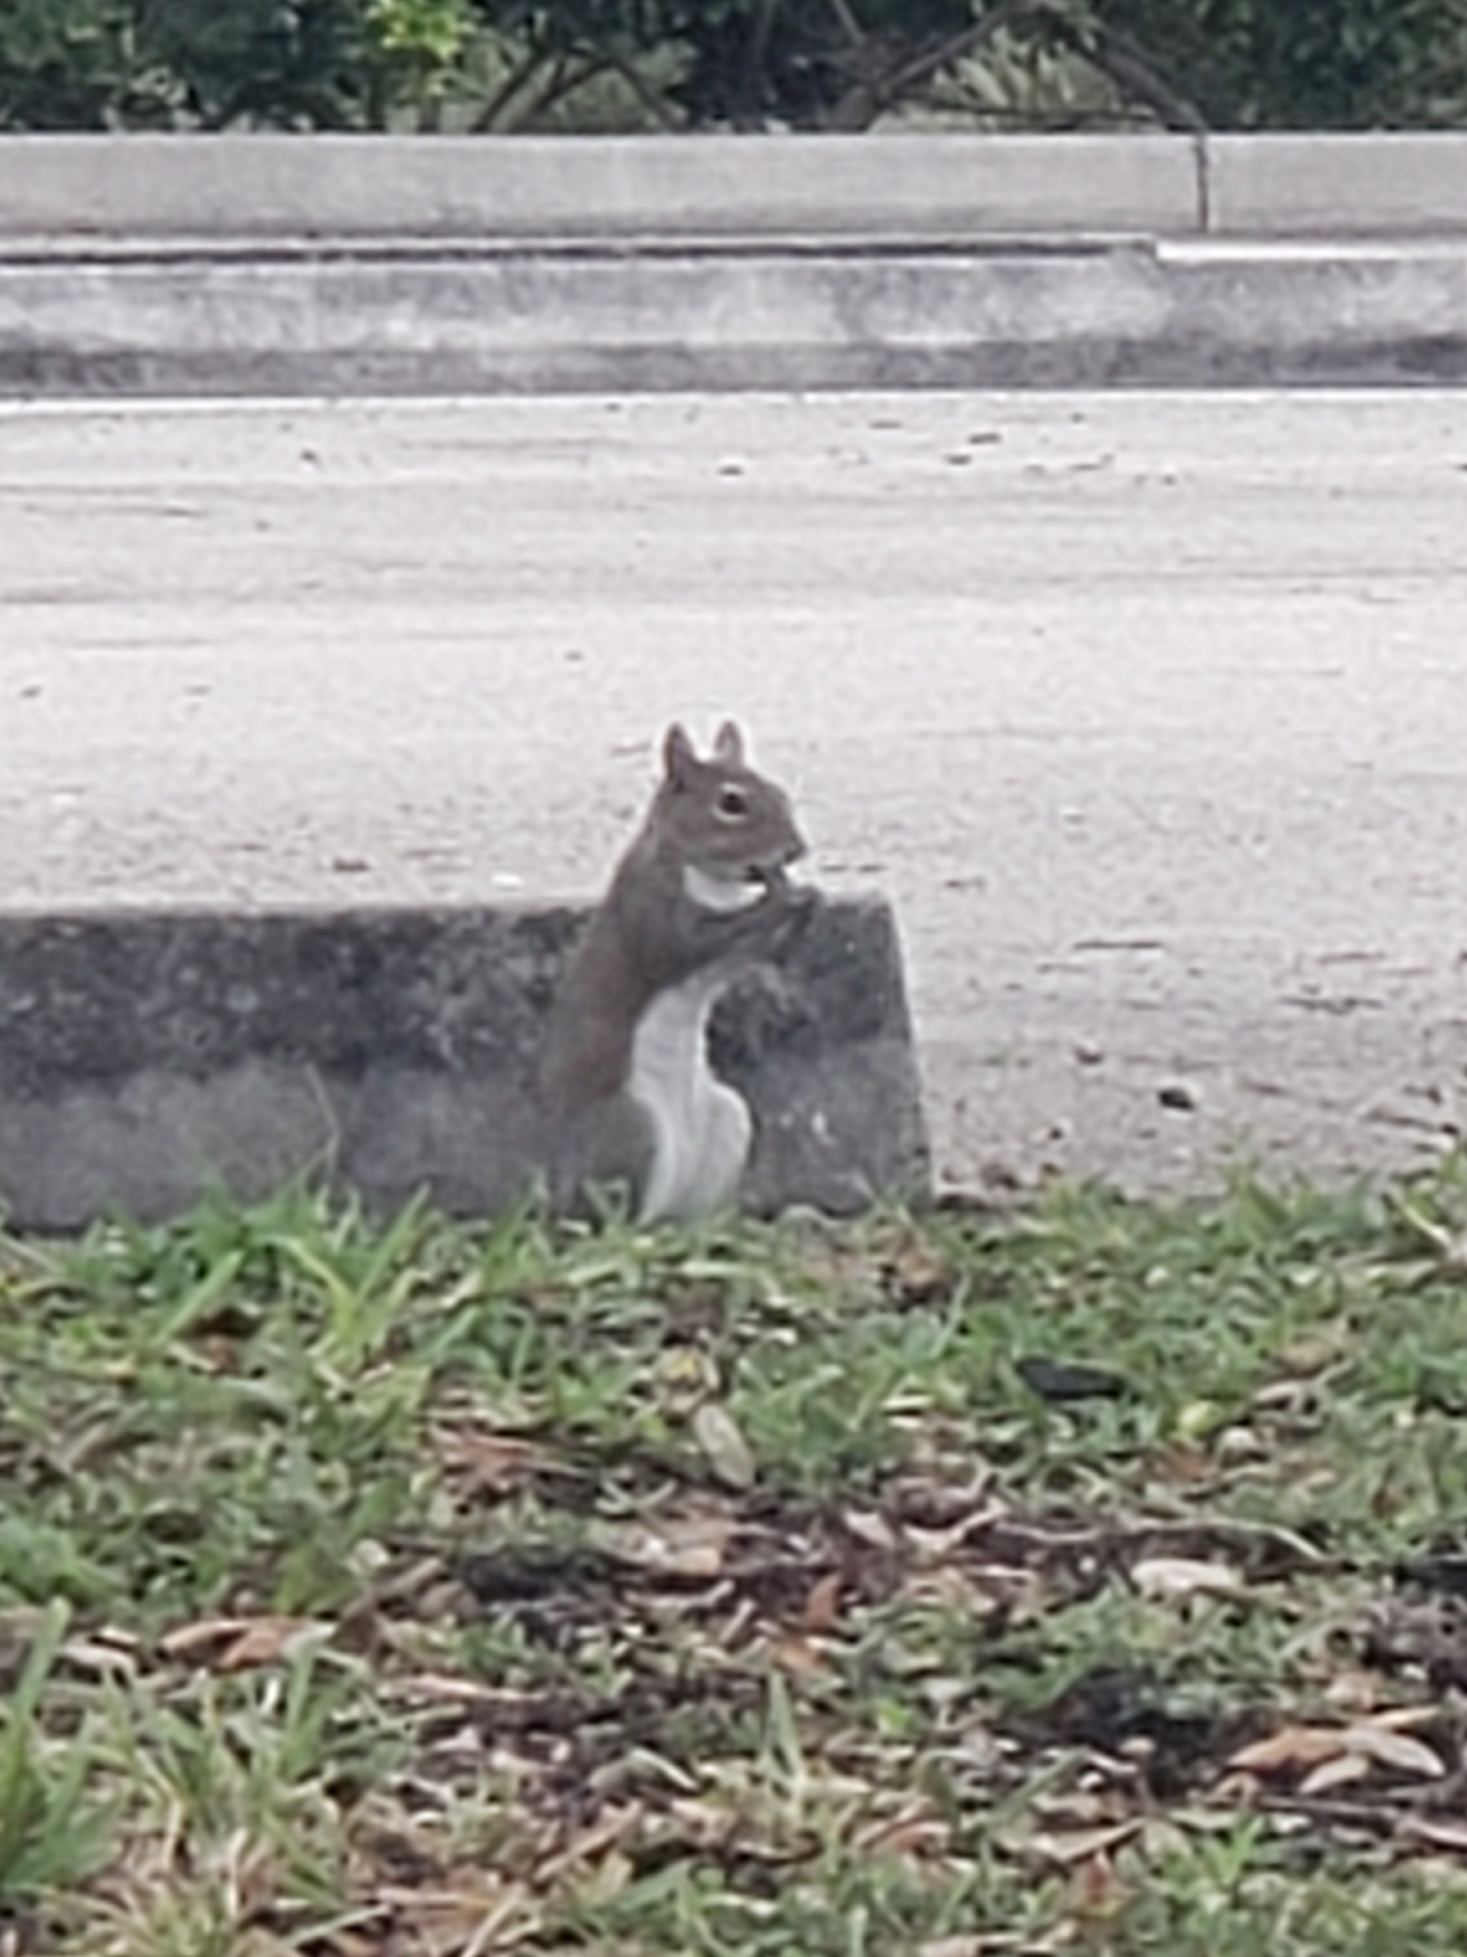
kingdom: Animalia
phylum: Chordata
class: Mammalia
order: Rodentia
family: Sciuridae
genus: Sciurus
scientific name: Sciurus carolinensis
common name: Eastern gray squirrel
